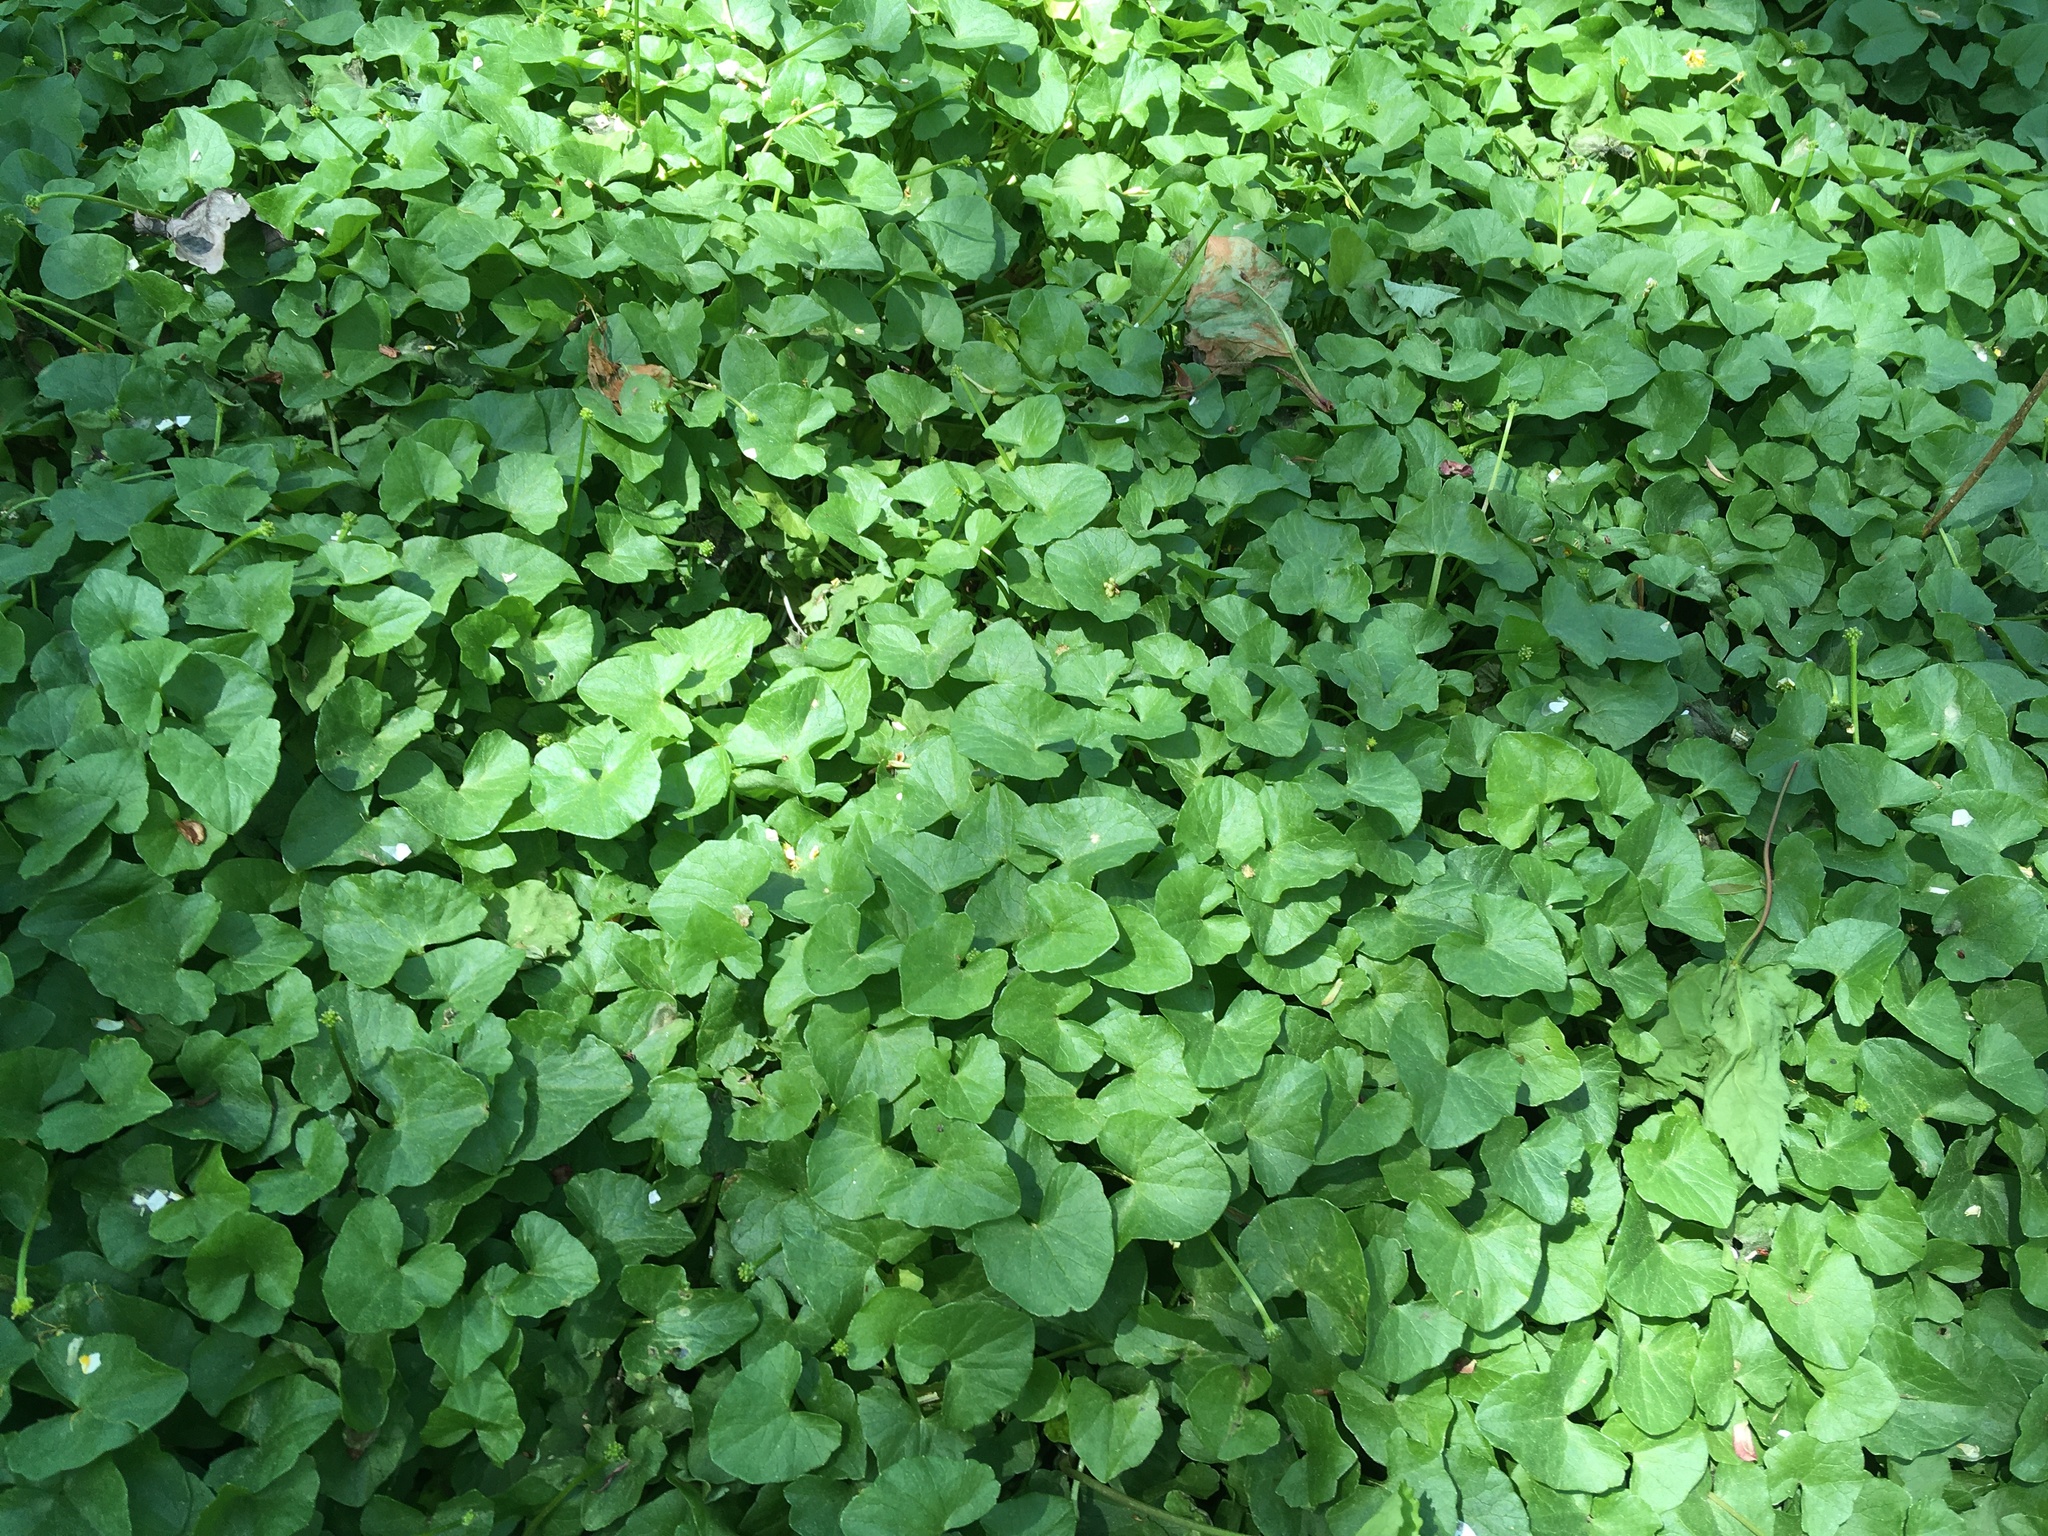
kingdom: Plantae
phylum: Tracheophyta
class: Magnoliopsida
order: Ranunculales
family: Ranunculaceae
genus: Ficaria
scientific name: Ficaria verna
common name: Lesser celandine
